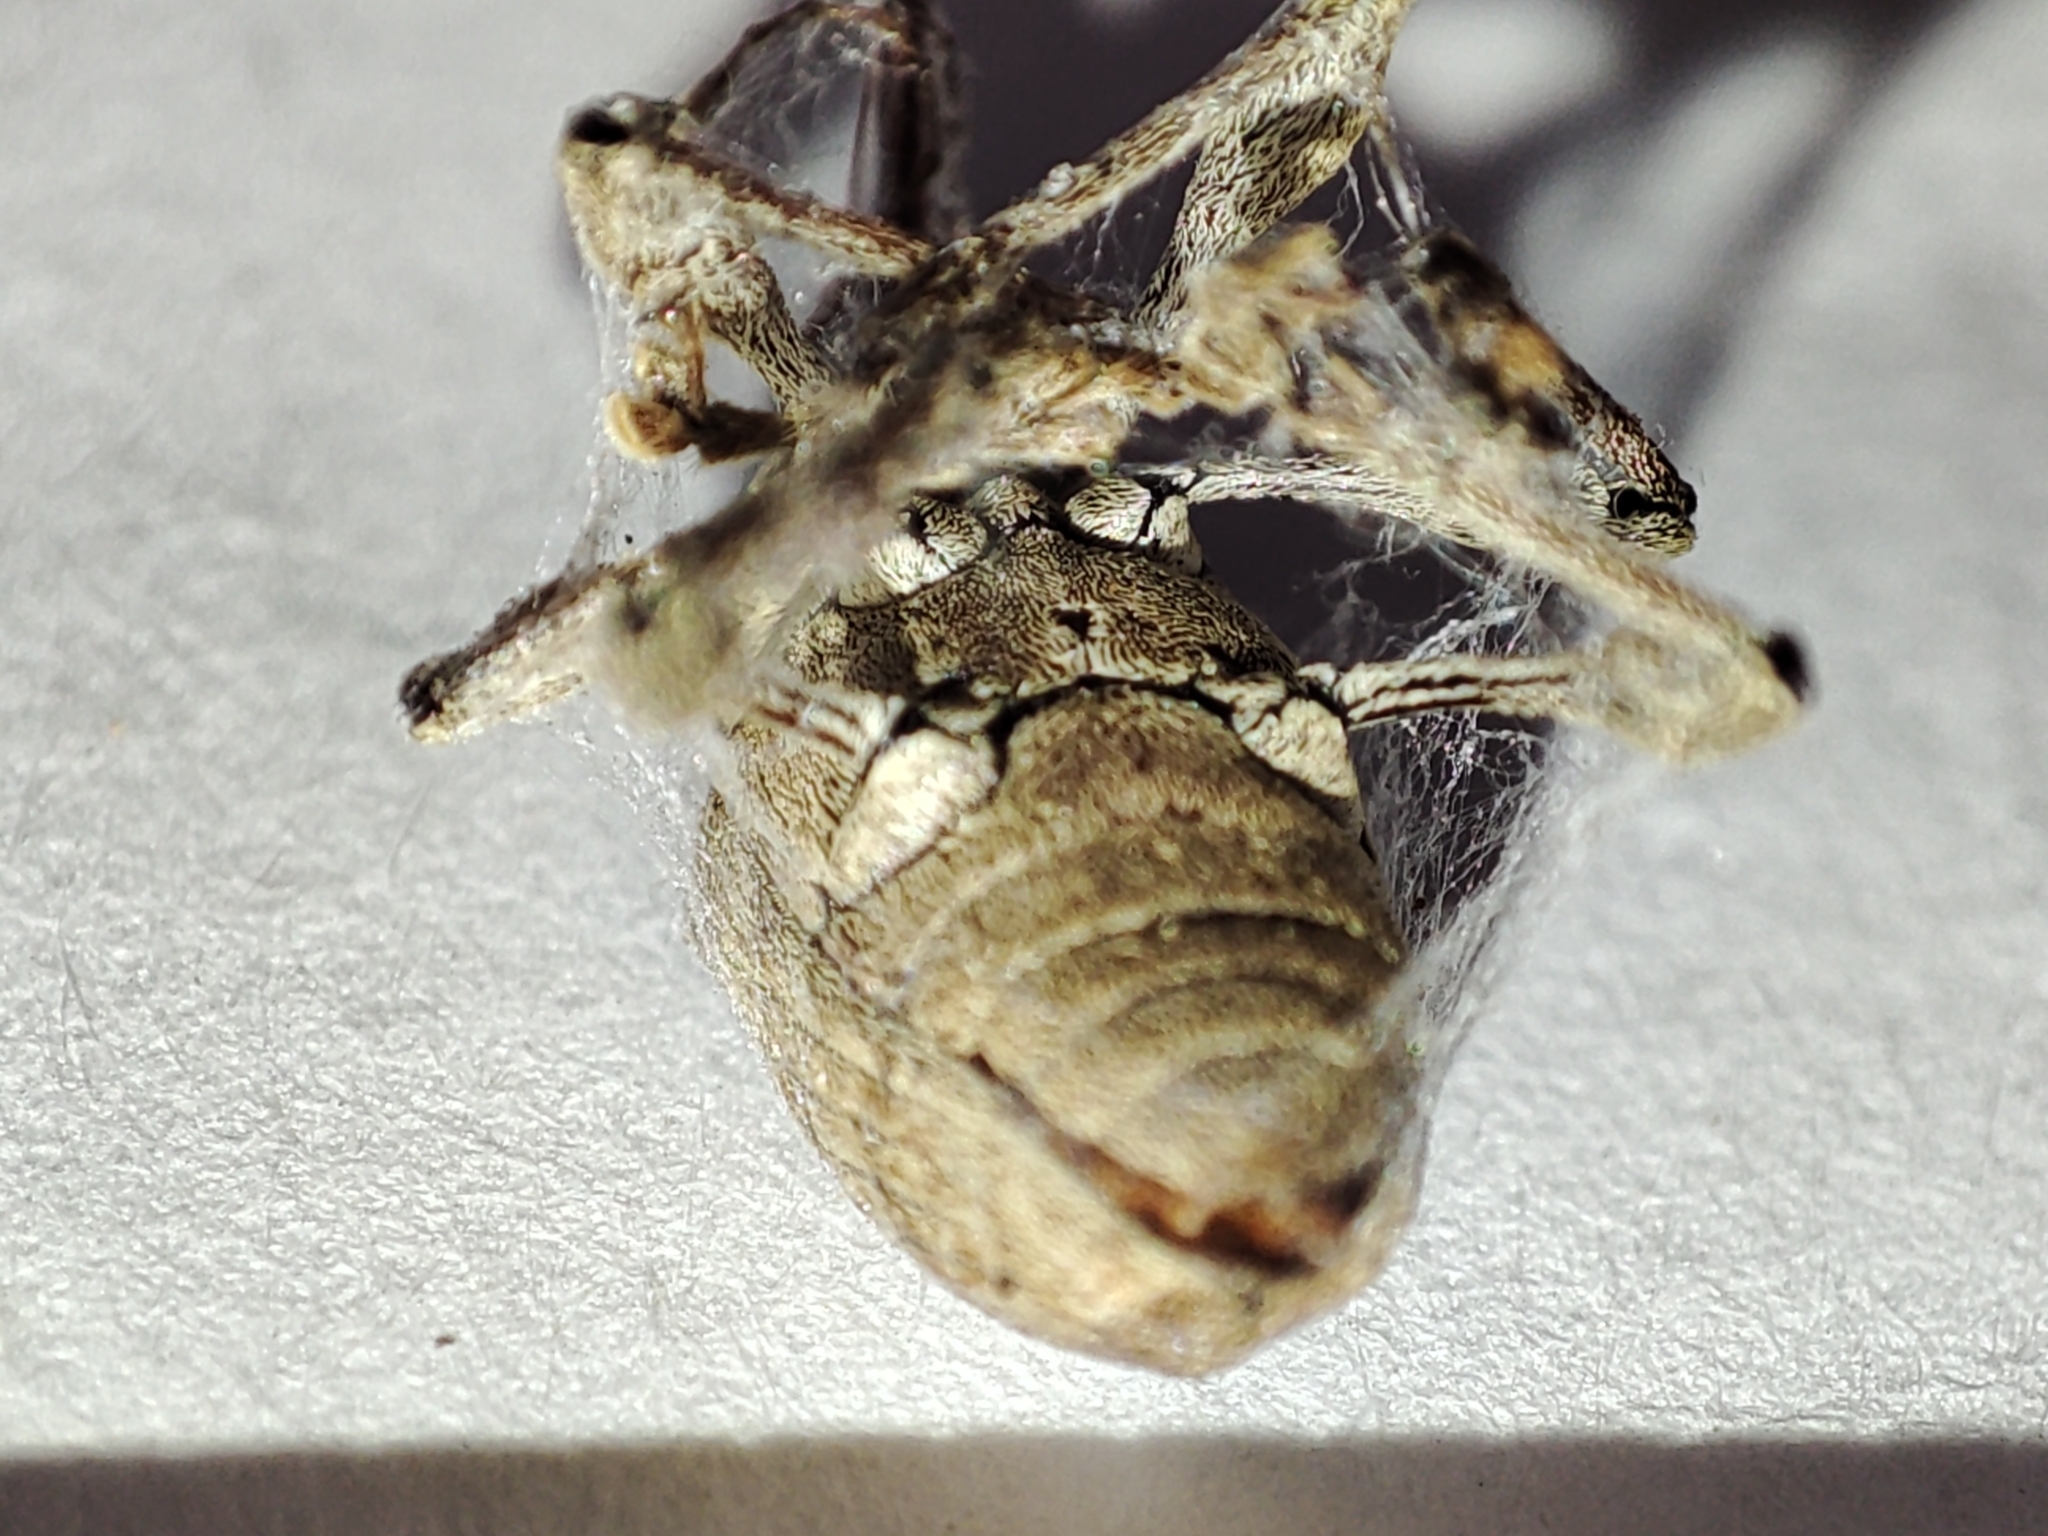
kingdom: Animalia
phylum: Arthropoda
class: Insecta
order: Coleoptera
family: Curculionidae
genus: Curculio
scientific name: Curculio elephas
